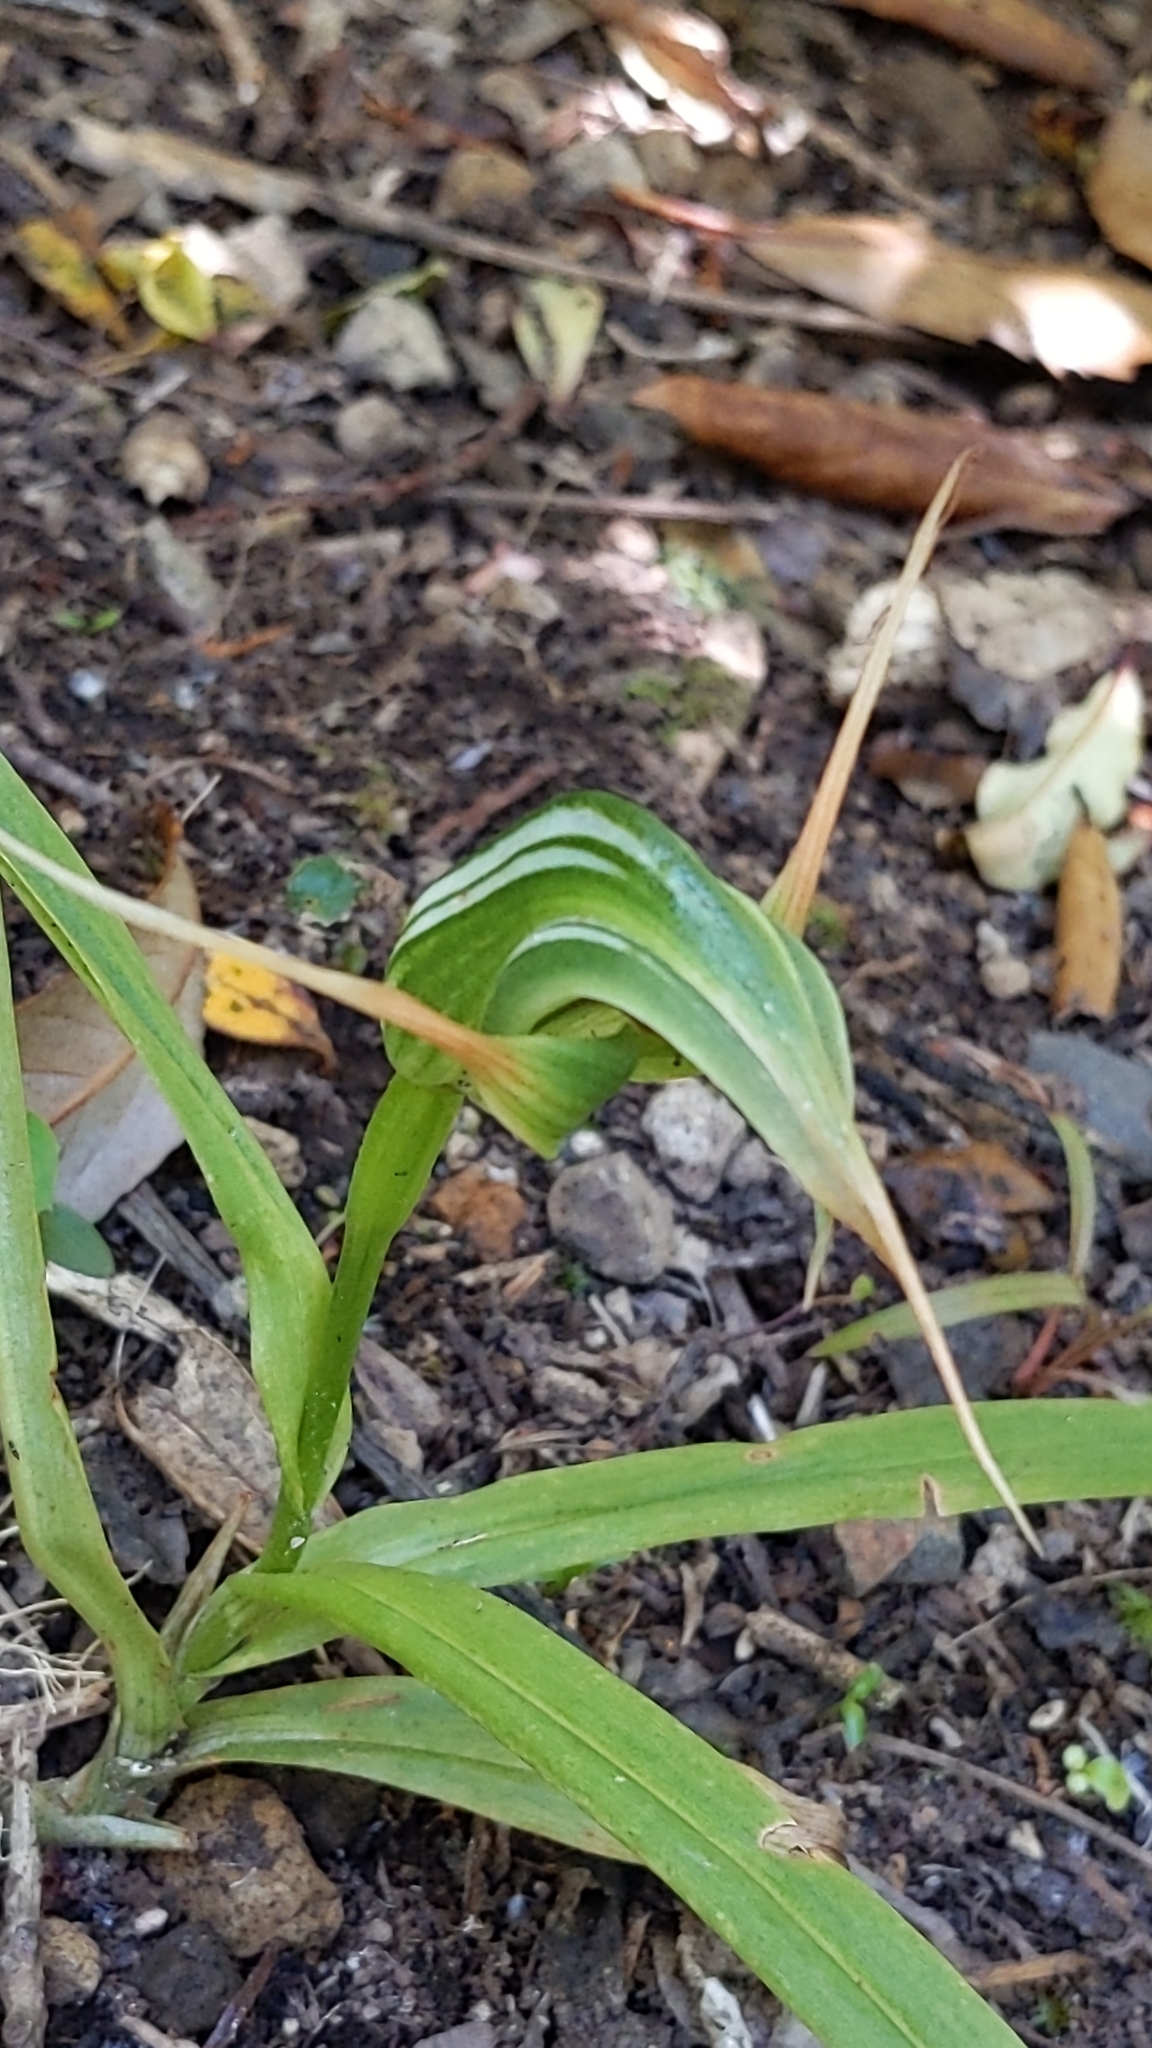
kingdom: Plantae
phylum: Tracheophyta
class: Liliopsida
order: Asparagales
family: Orchidaceae
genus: Pterostylis
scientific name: Pterostylis banksii
